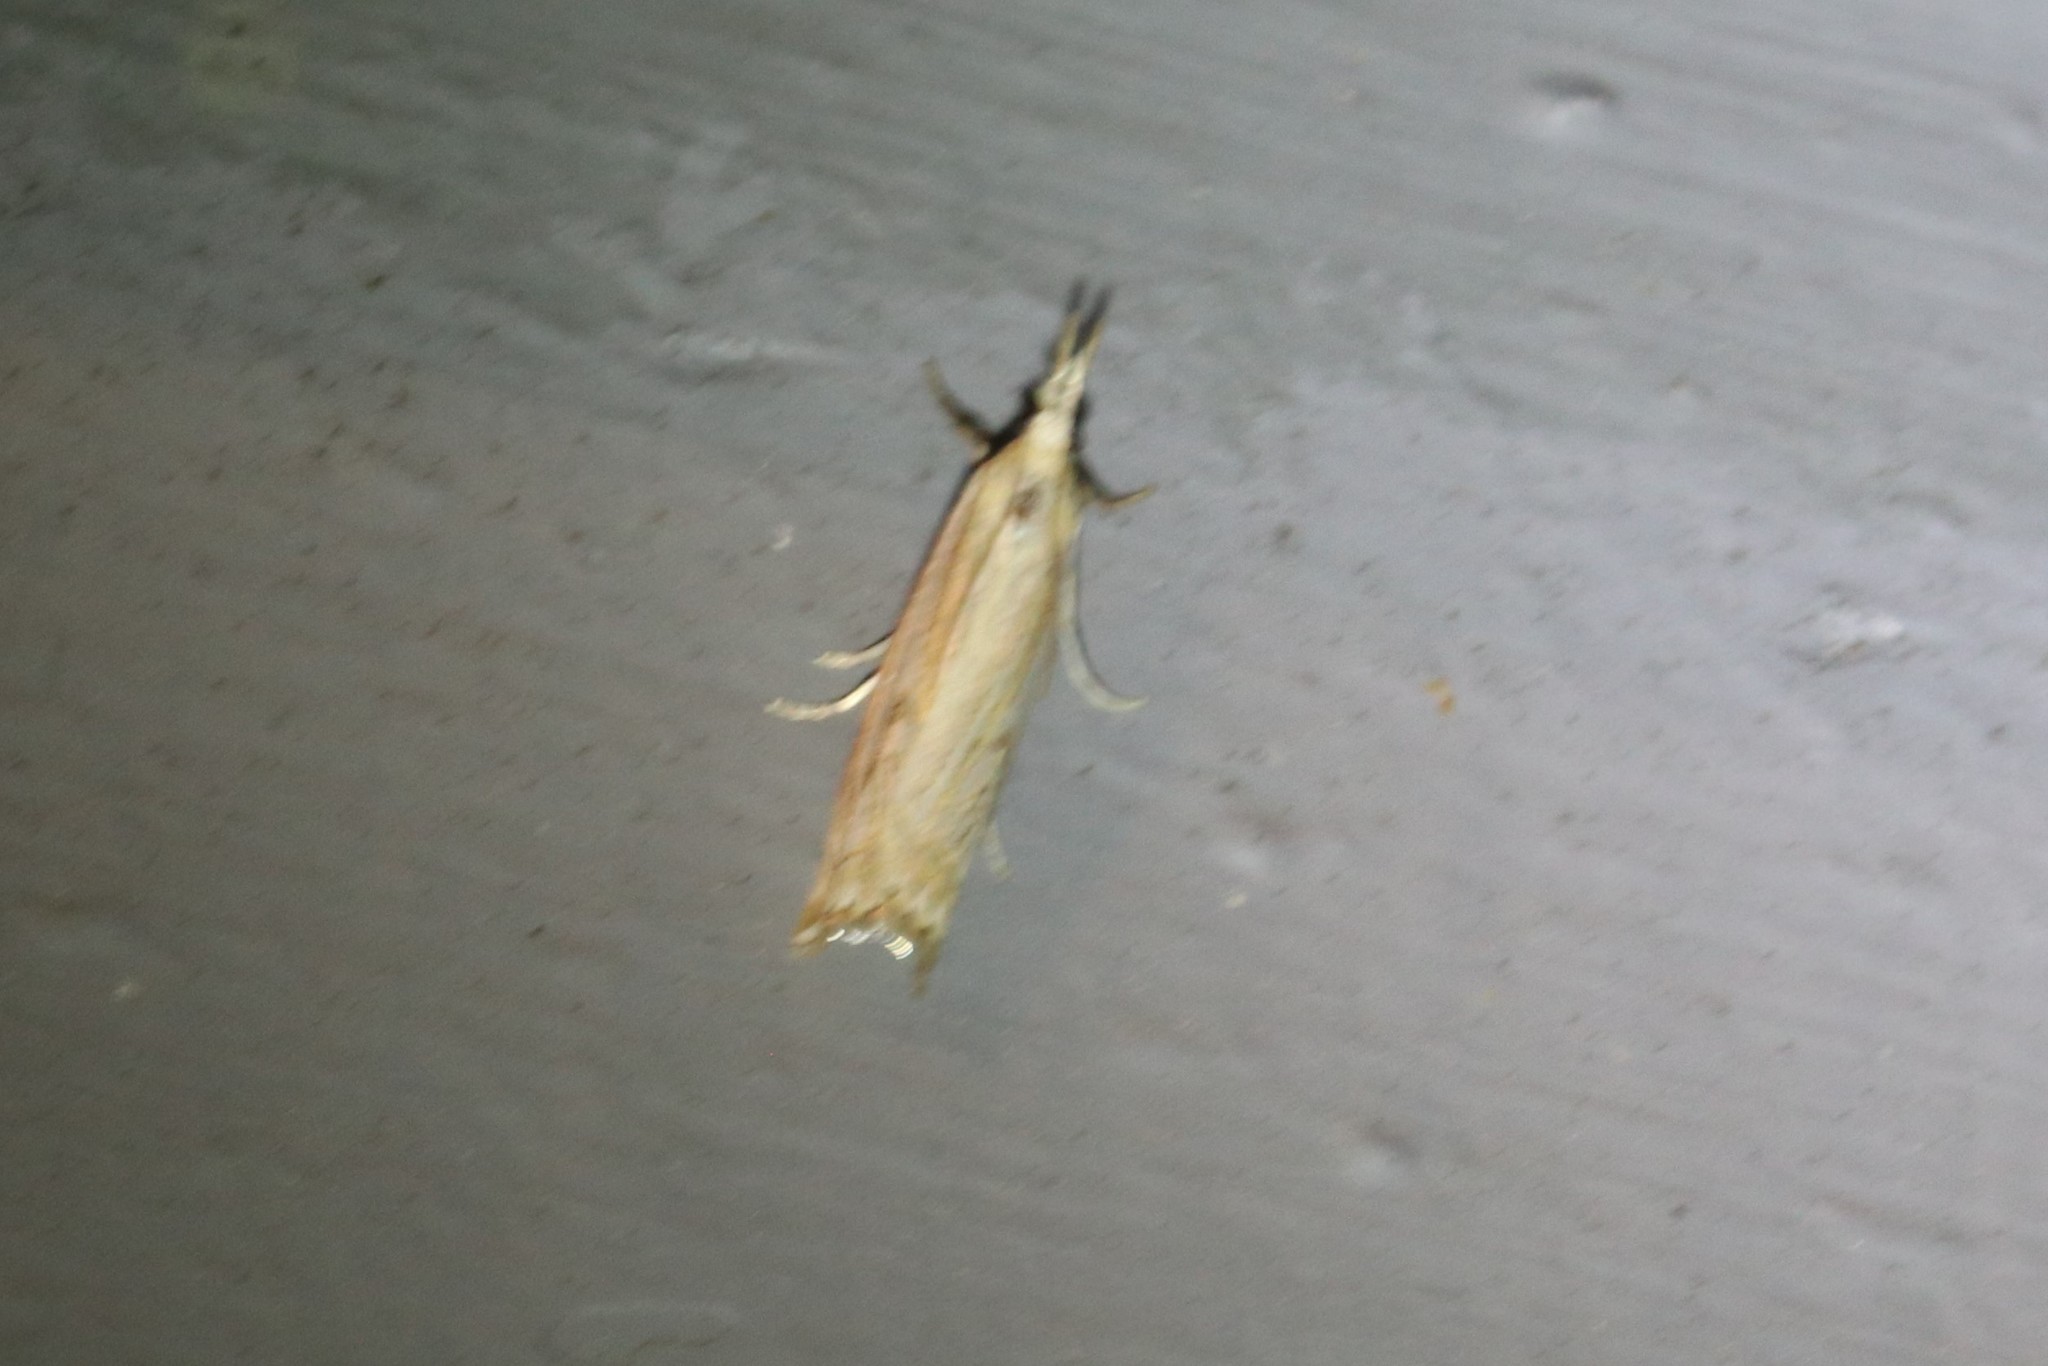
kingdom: Animalia
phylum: Arthropoda
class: Insecta
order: Lepidoptera
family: Crambidae
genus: Crambus
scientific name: Crambus
